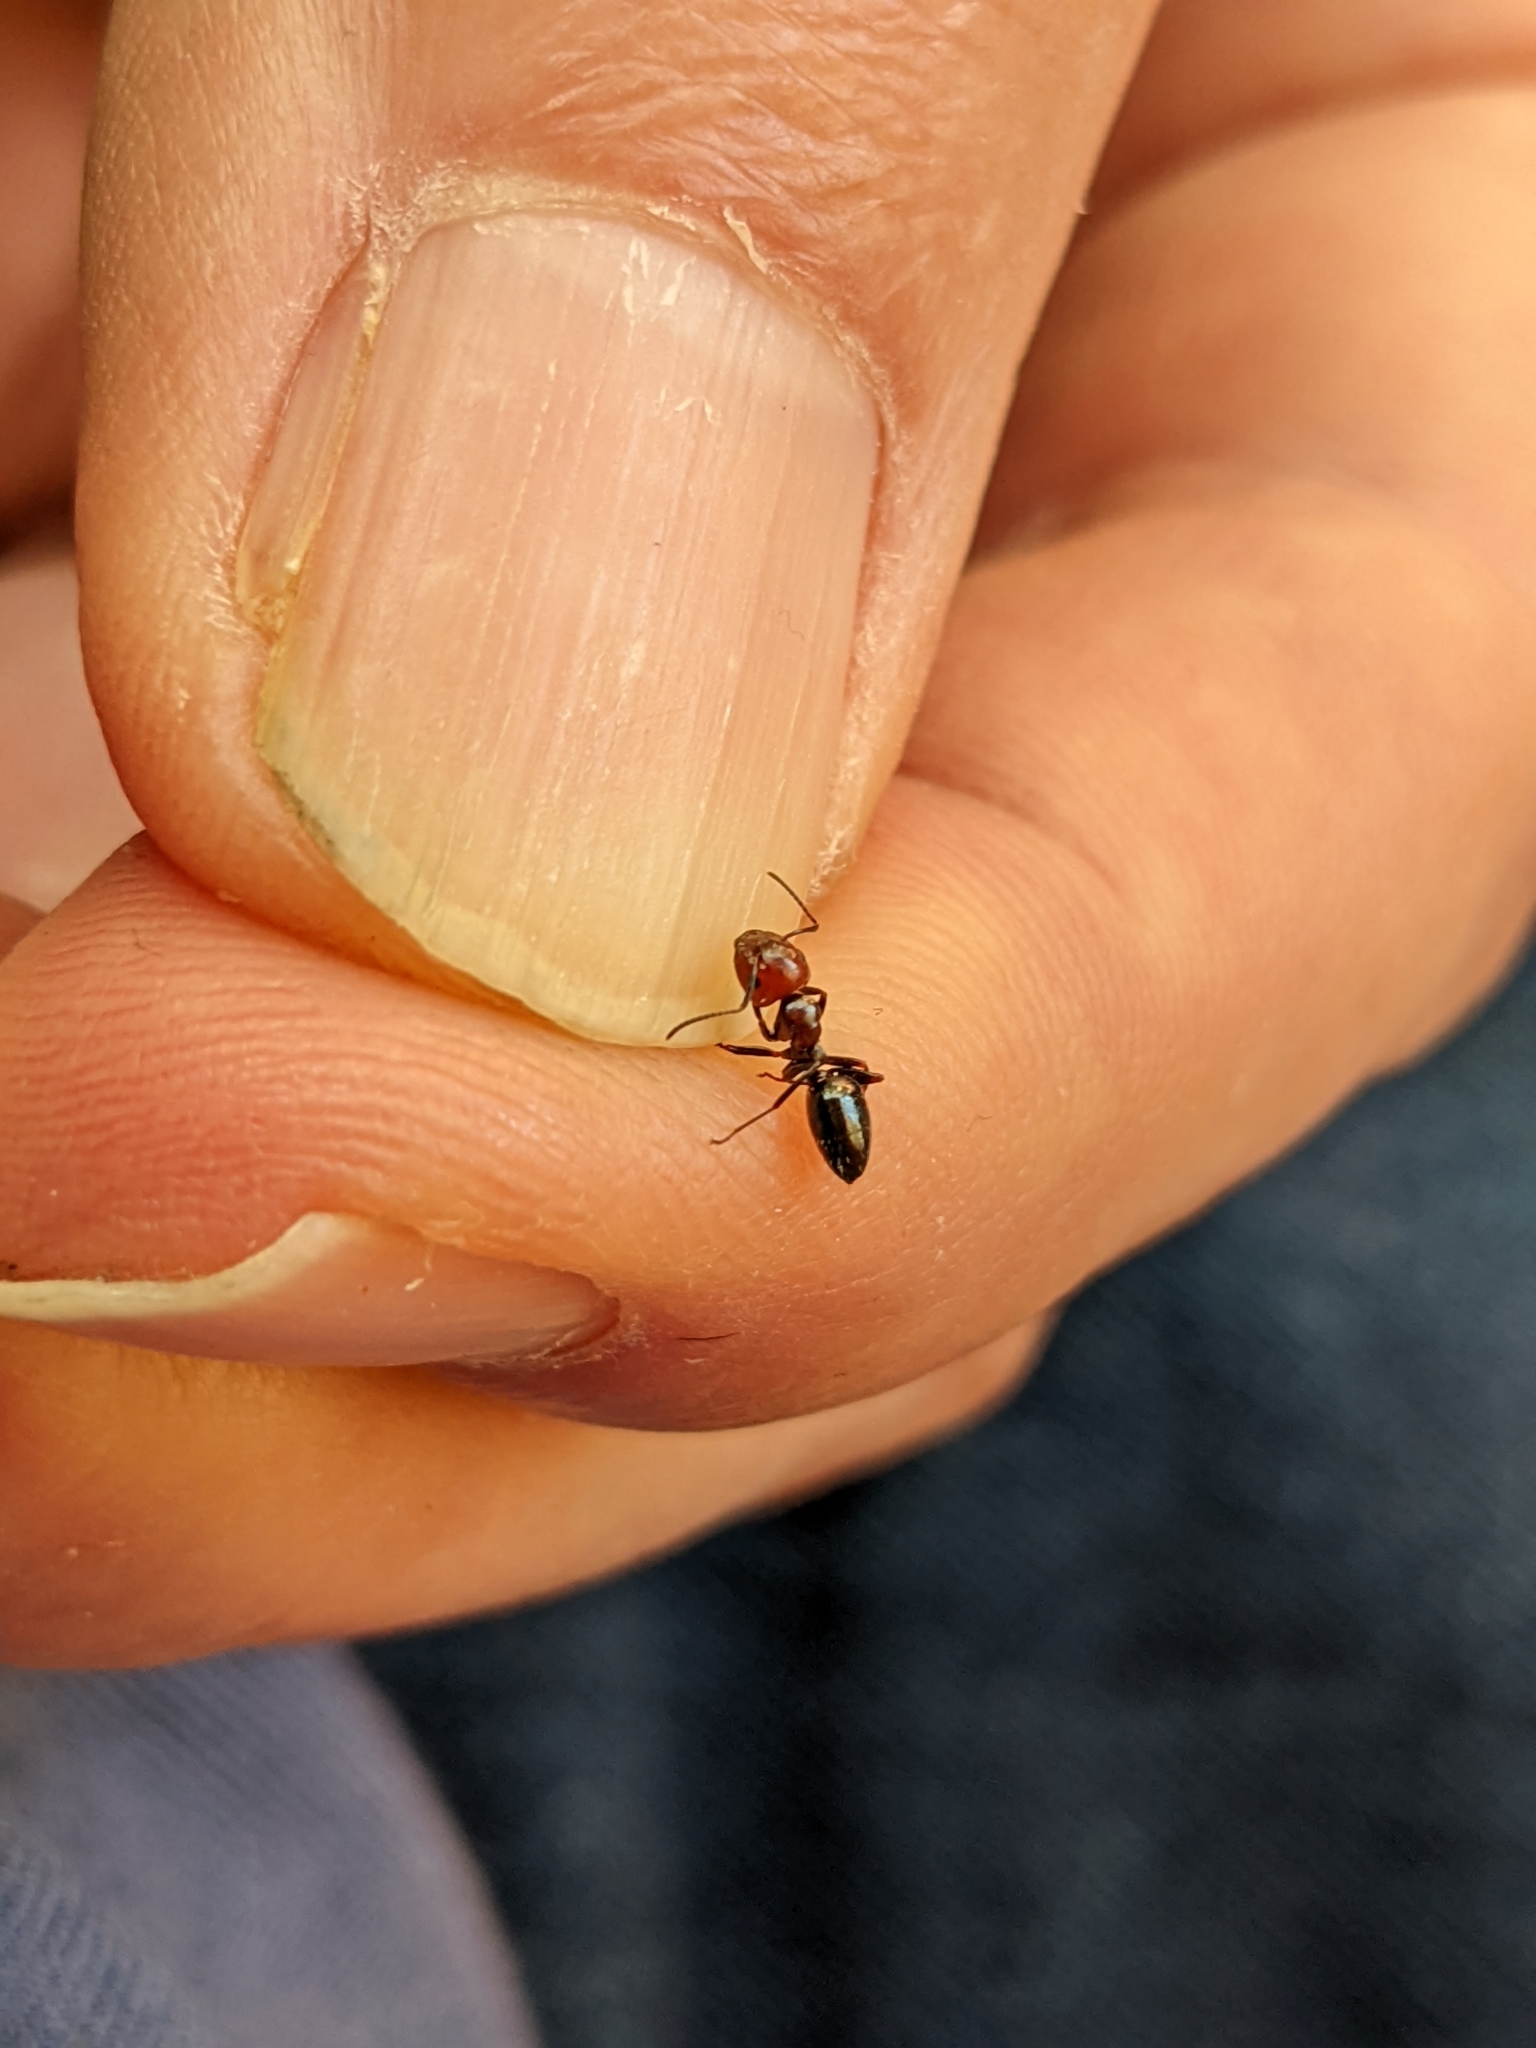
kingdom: Animalia
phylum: Arthropoda
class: Insecta
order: Hymenoptera
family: Formicidae
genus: Camponotus
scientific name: Camponotus lateralis
